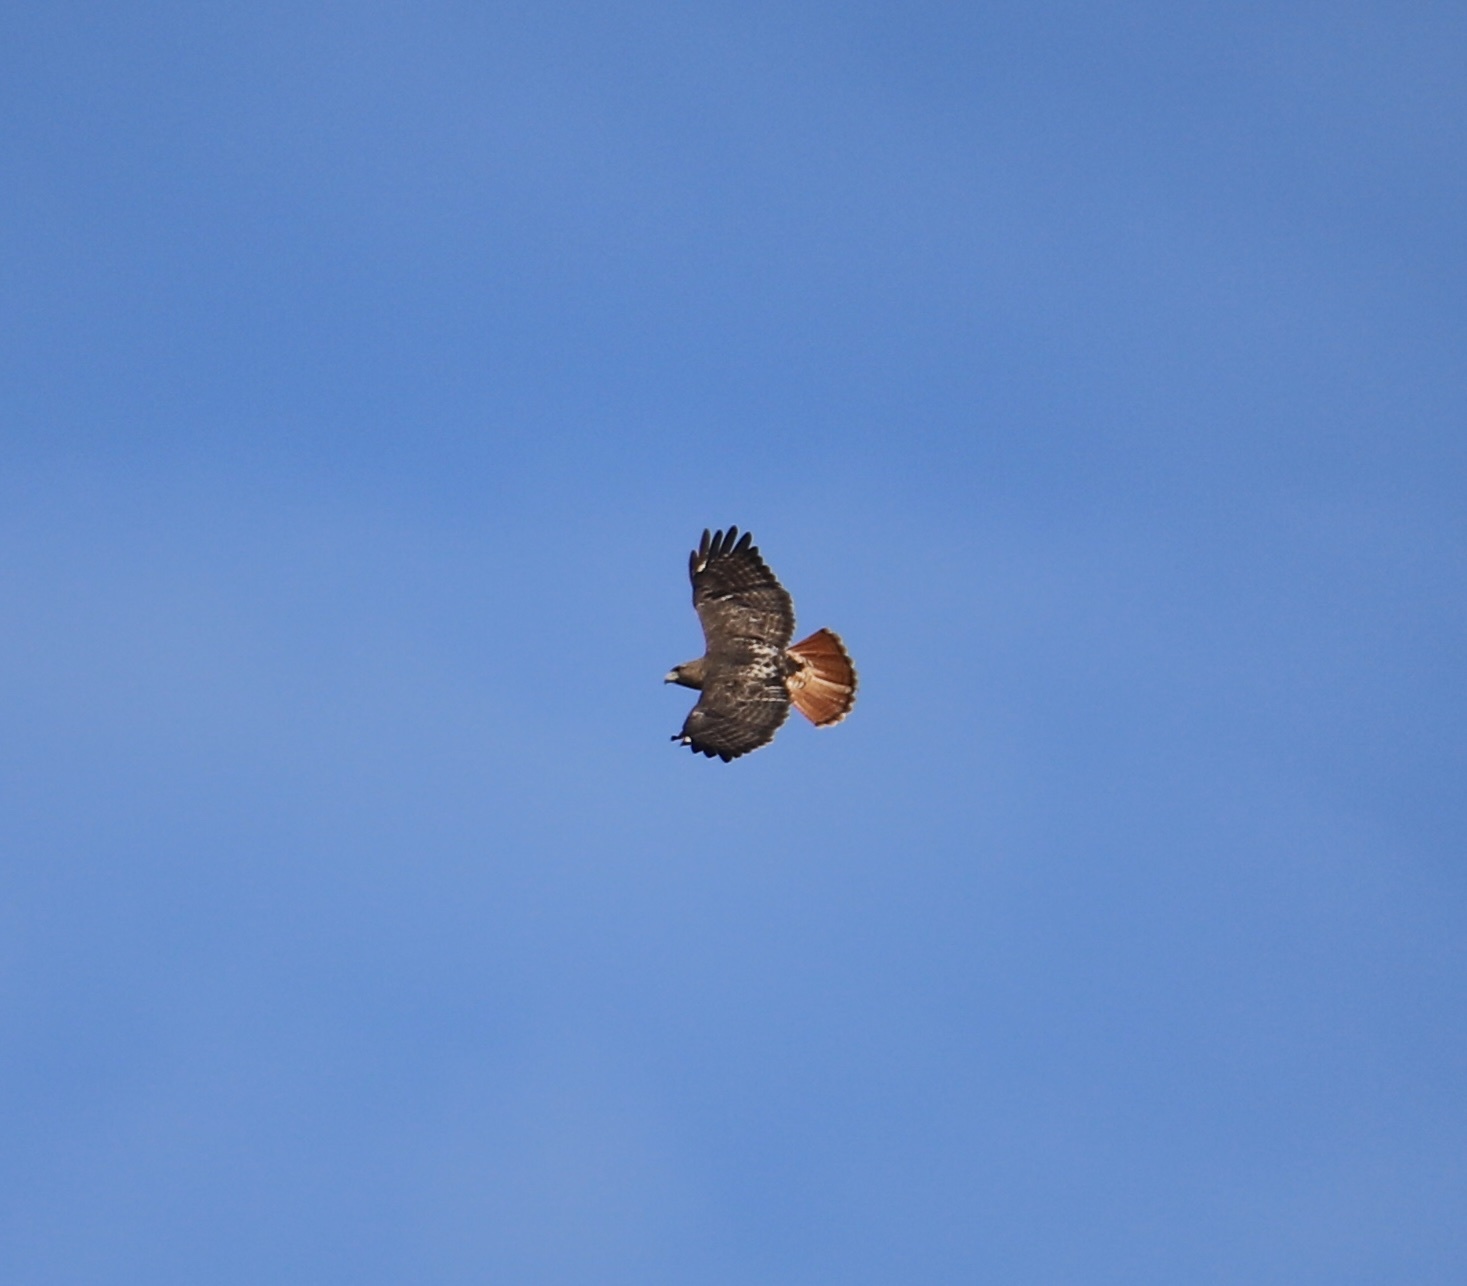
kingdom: Animalia
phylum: Chordata
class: Aves
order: Accipitriformes
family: Accipitridae
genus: Buteo
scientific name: Buteo jamaicensis
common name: Red-tailed hawk
